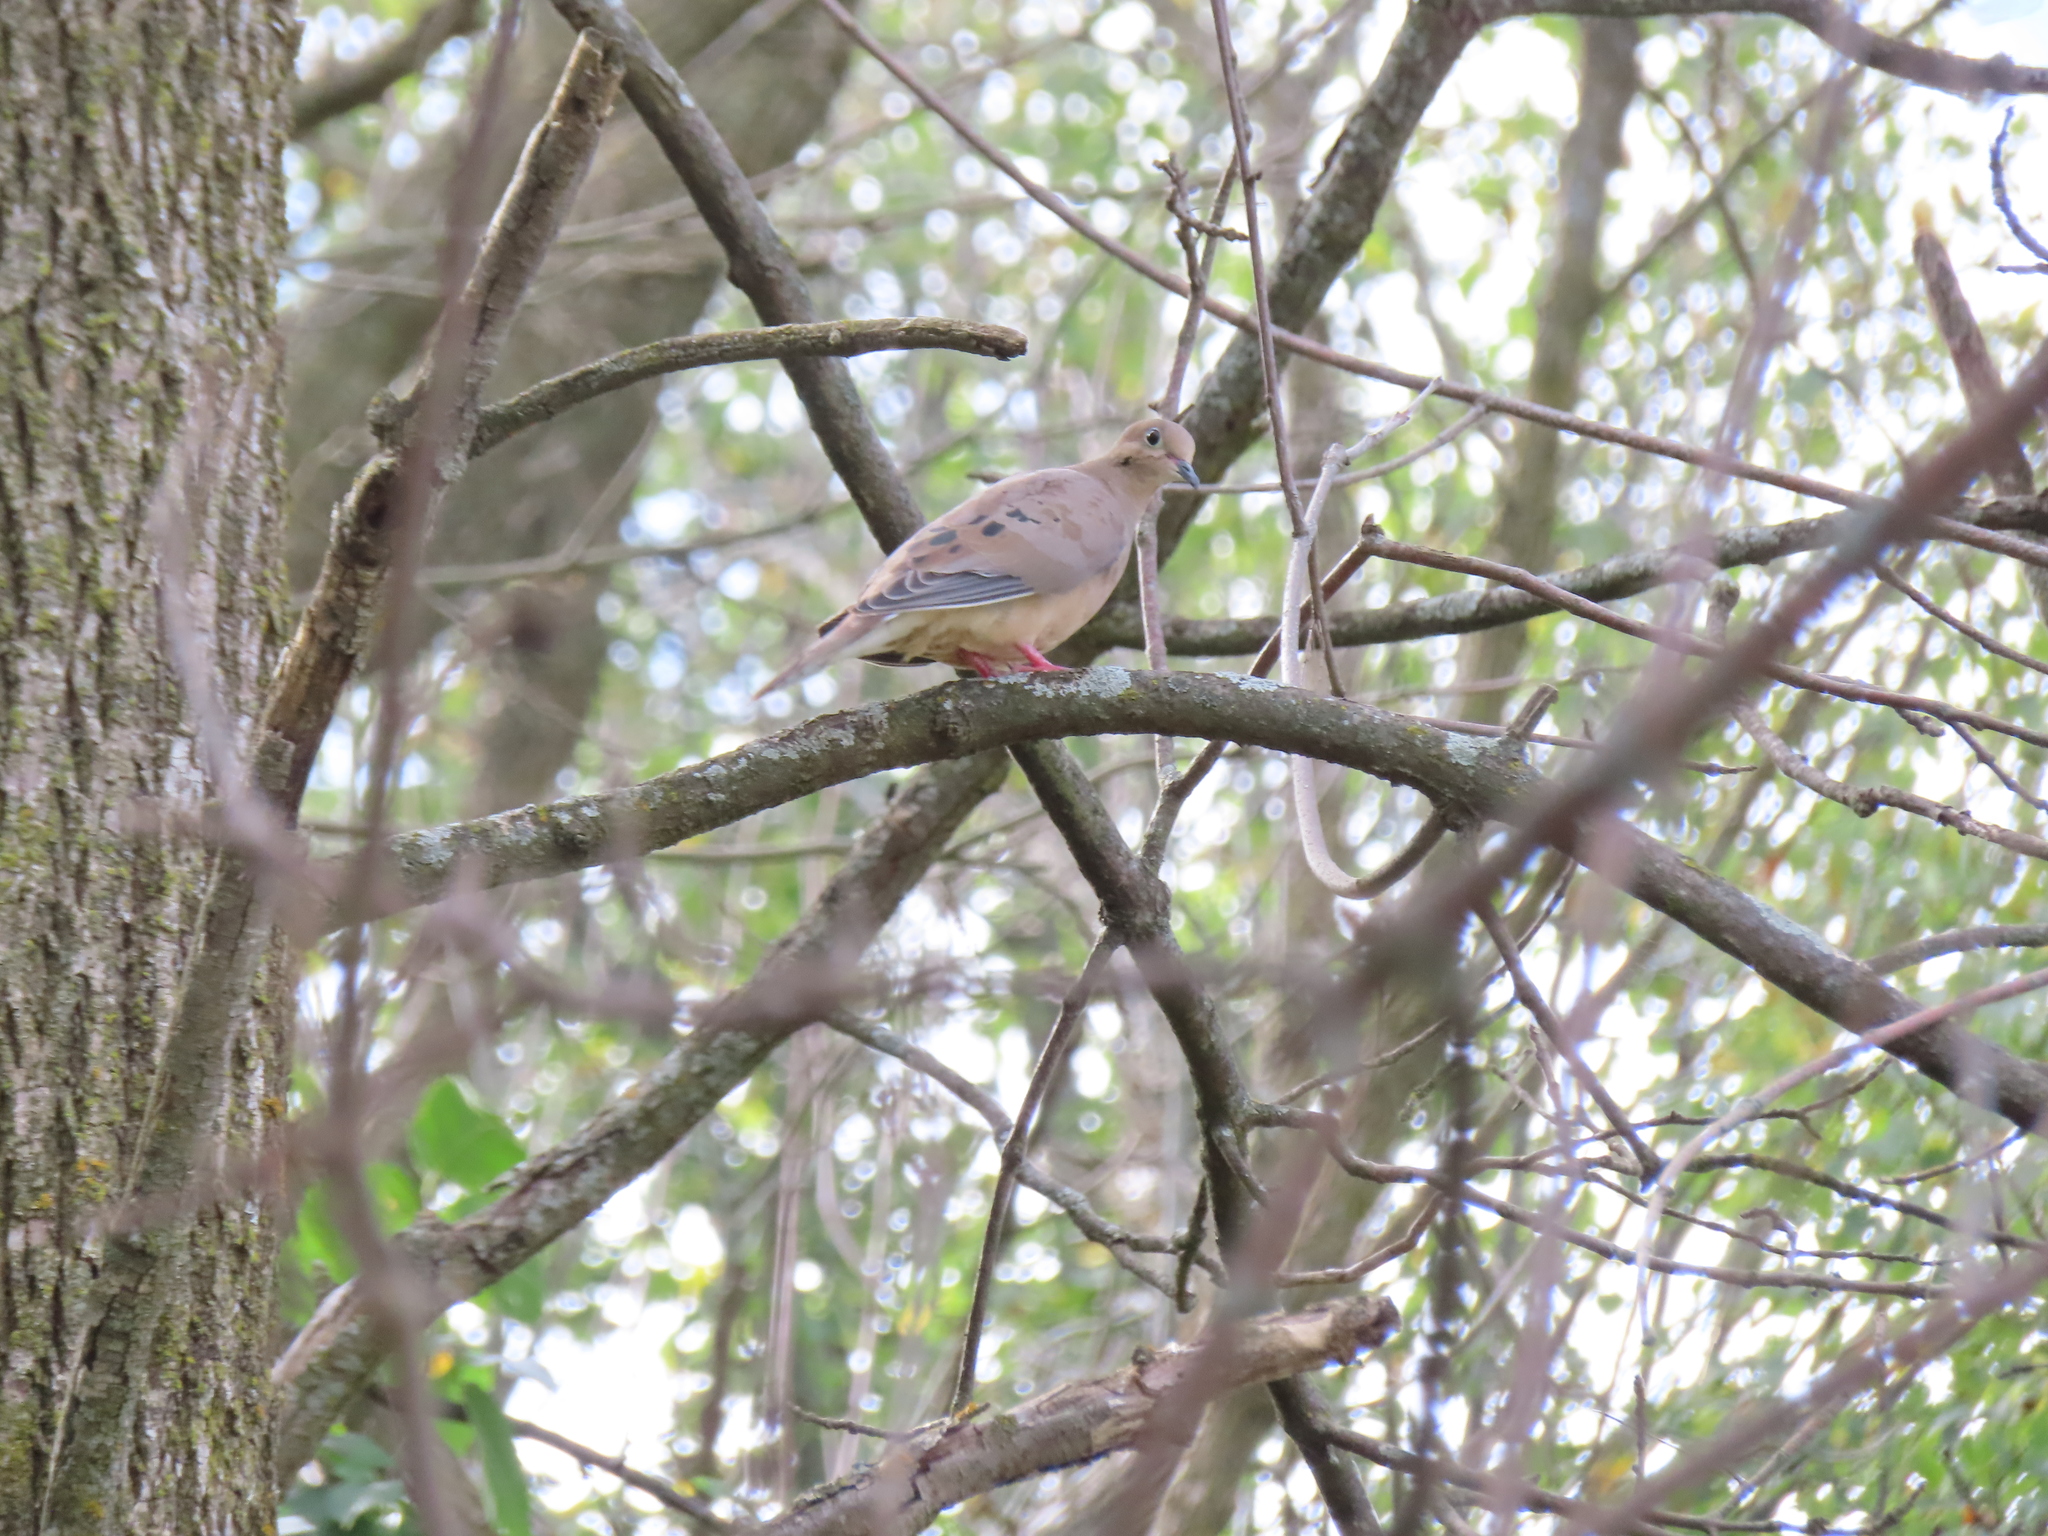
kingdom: Animalia
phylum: Chordata
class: Aves
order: Columbiformes
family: Columbidae
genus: Zenaida
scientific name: Zenaida macroura
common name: Mourning dove
